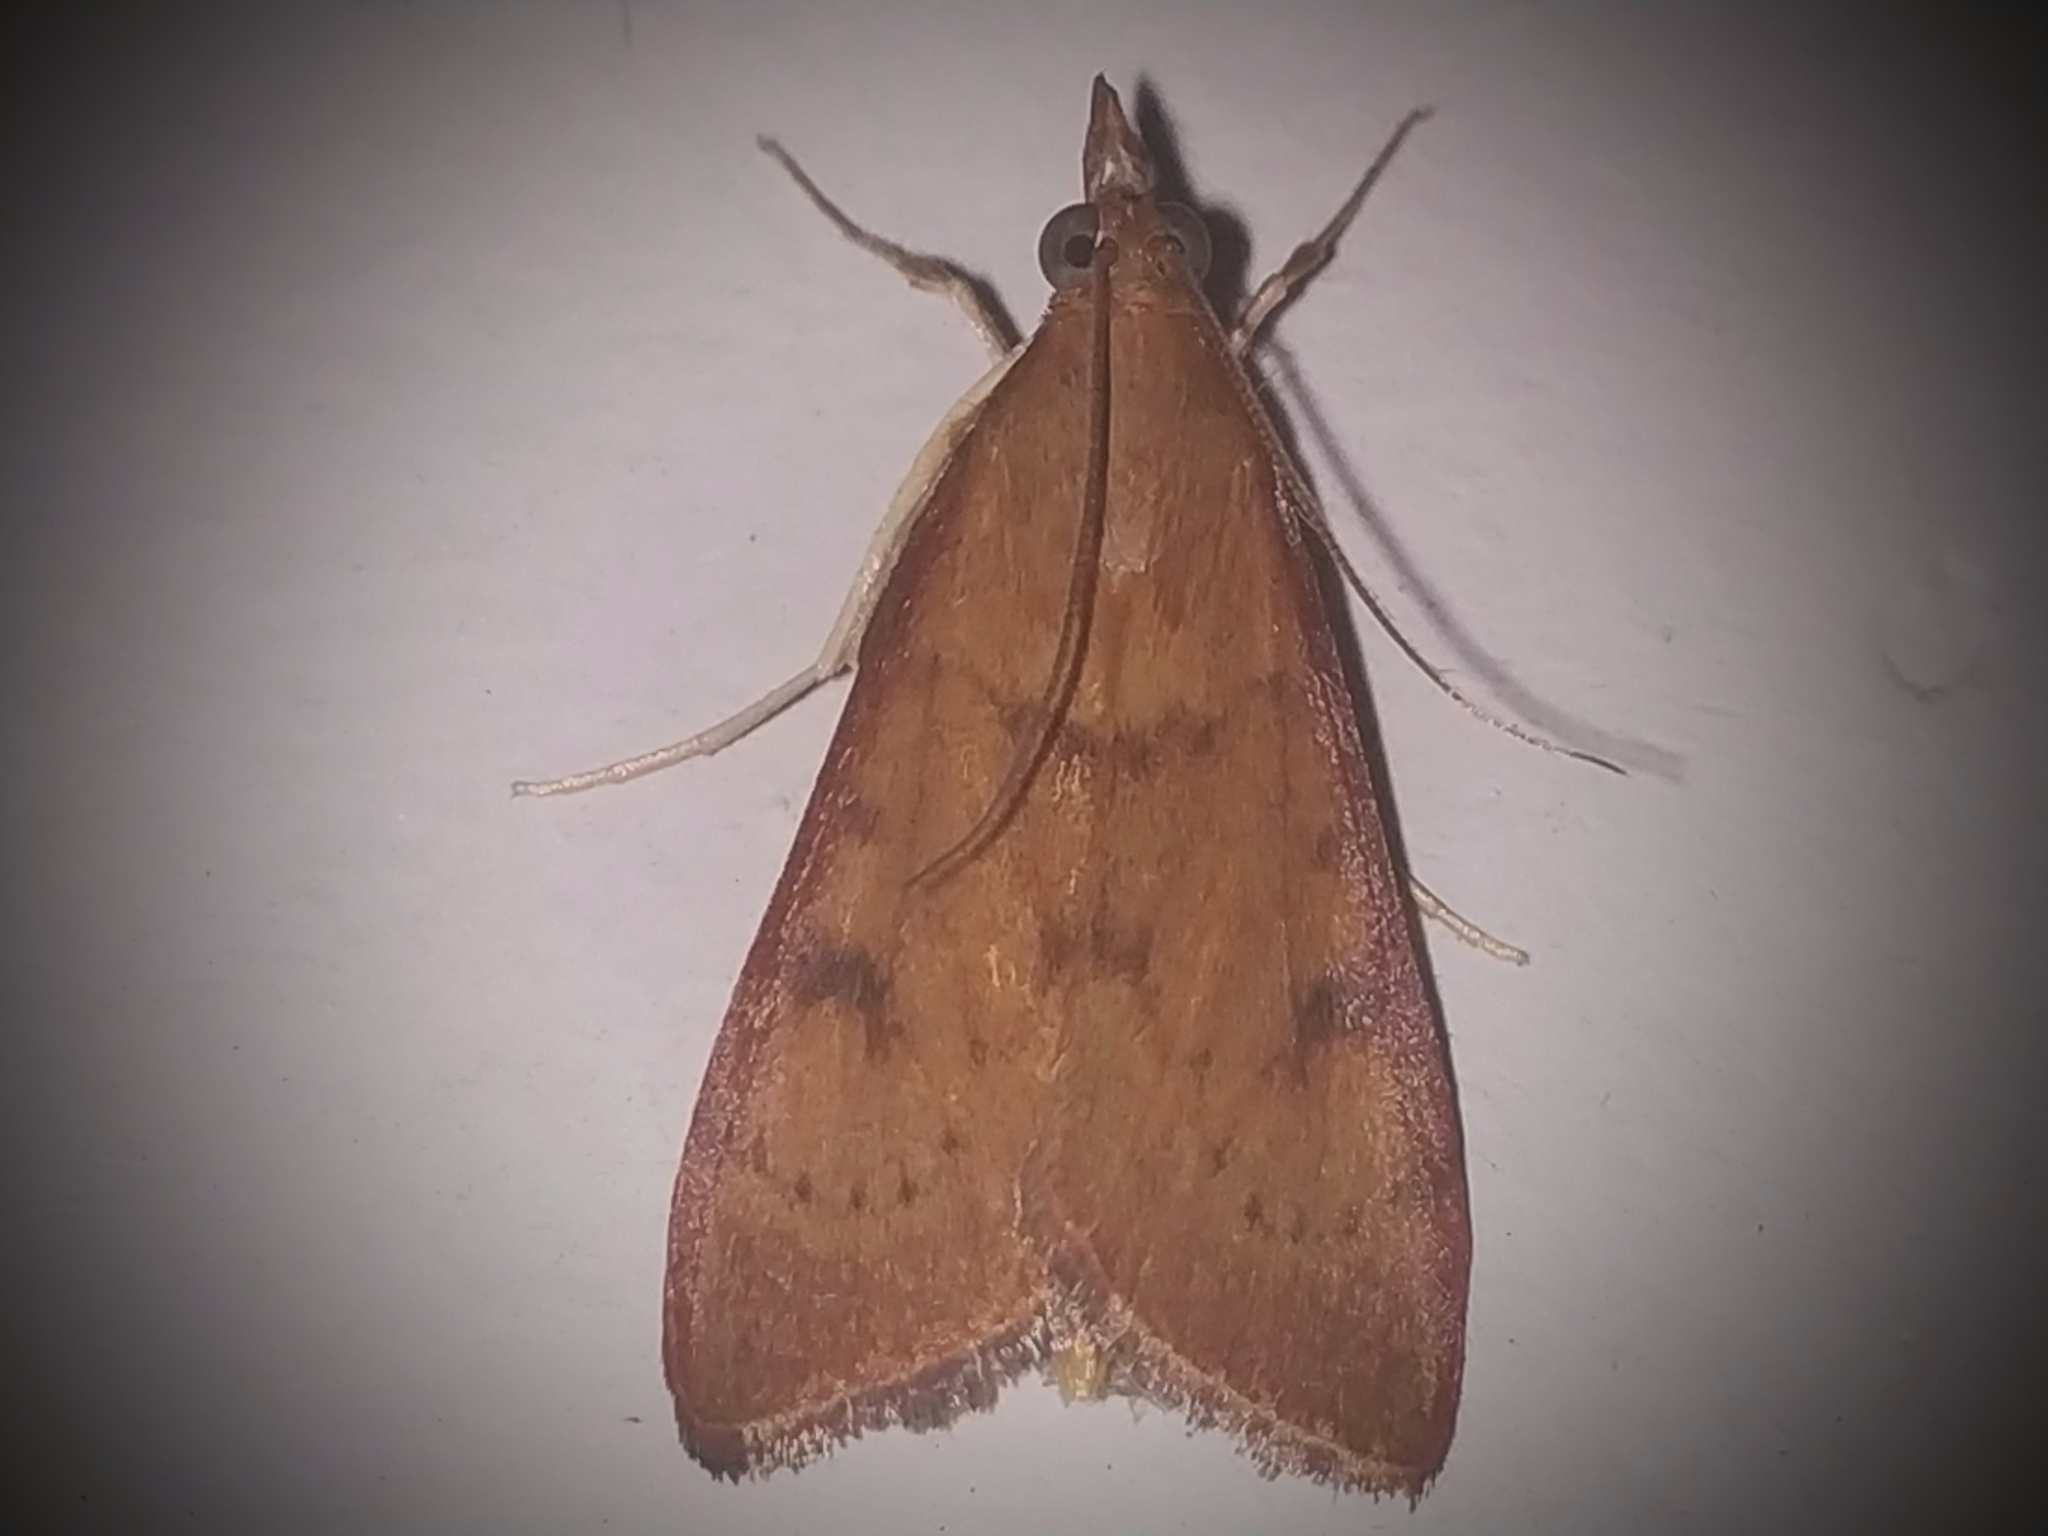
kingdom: Animalia
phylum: Arthropoda
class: Insecta
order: Lepidoptera
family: Crambidae
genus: Uresiphita
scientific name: Uresiphita gilvata
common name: Yellow-underwing pearl
